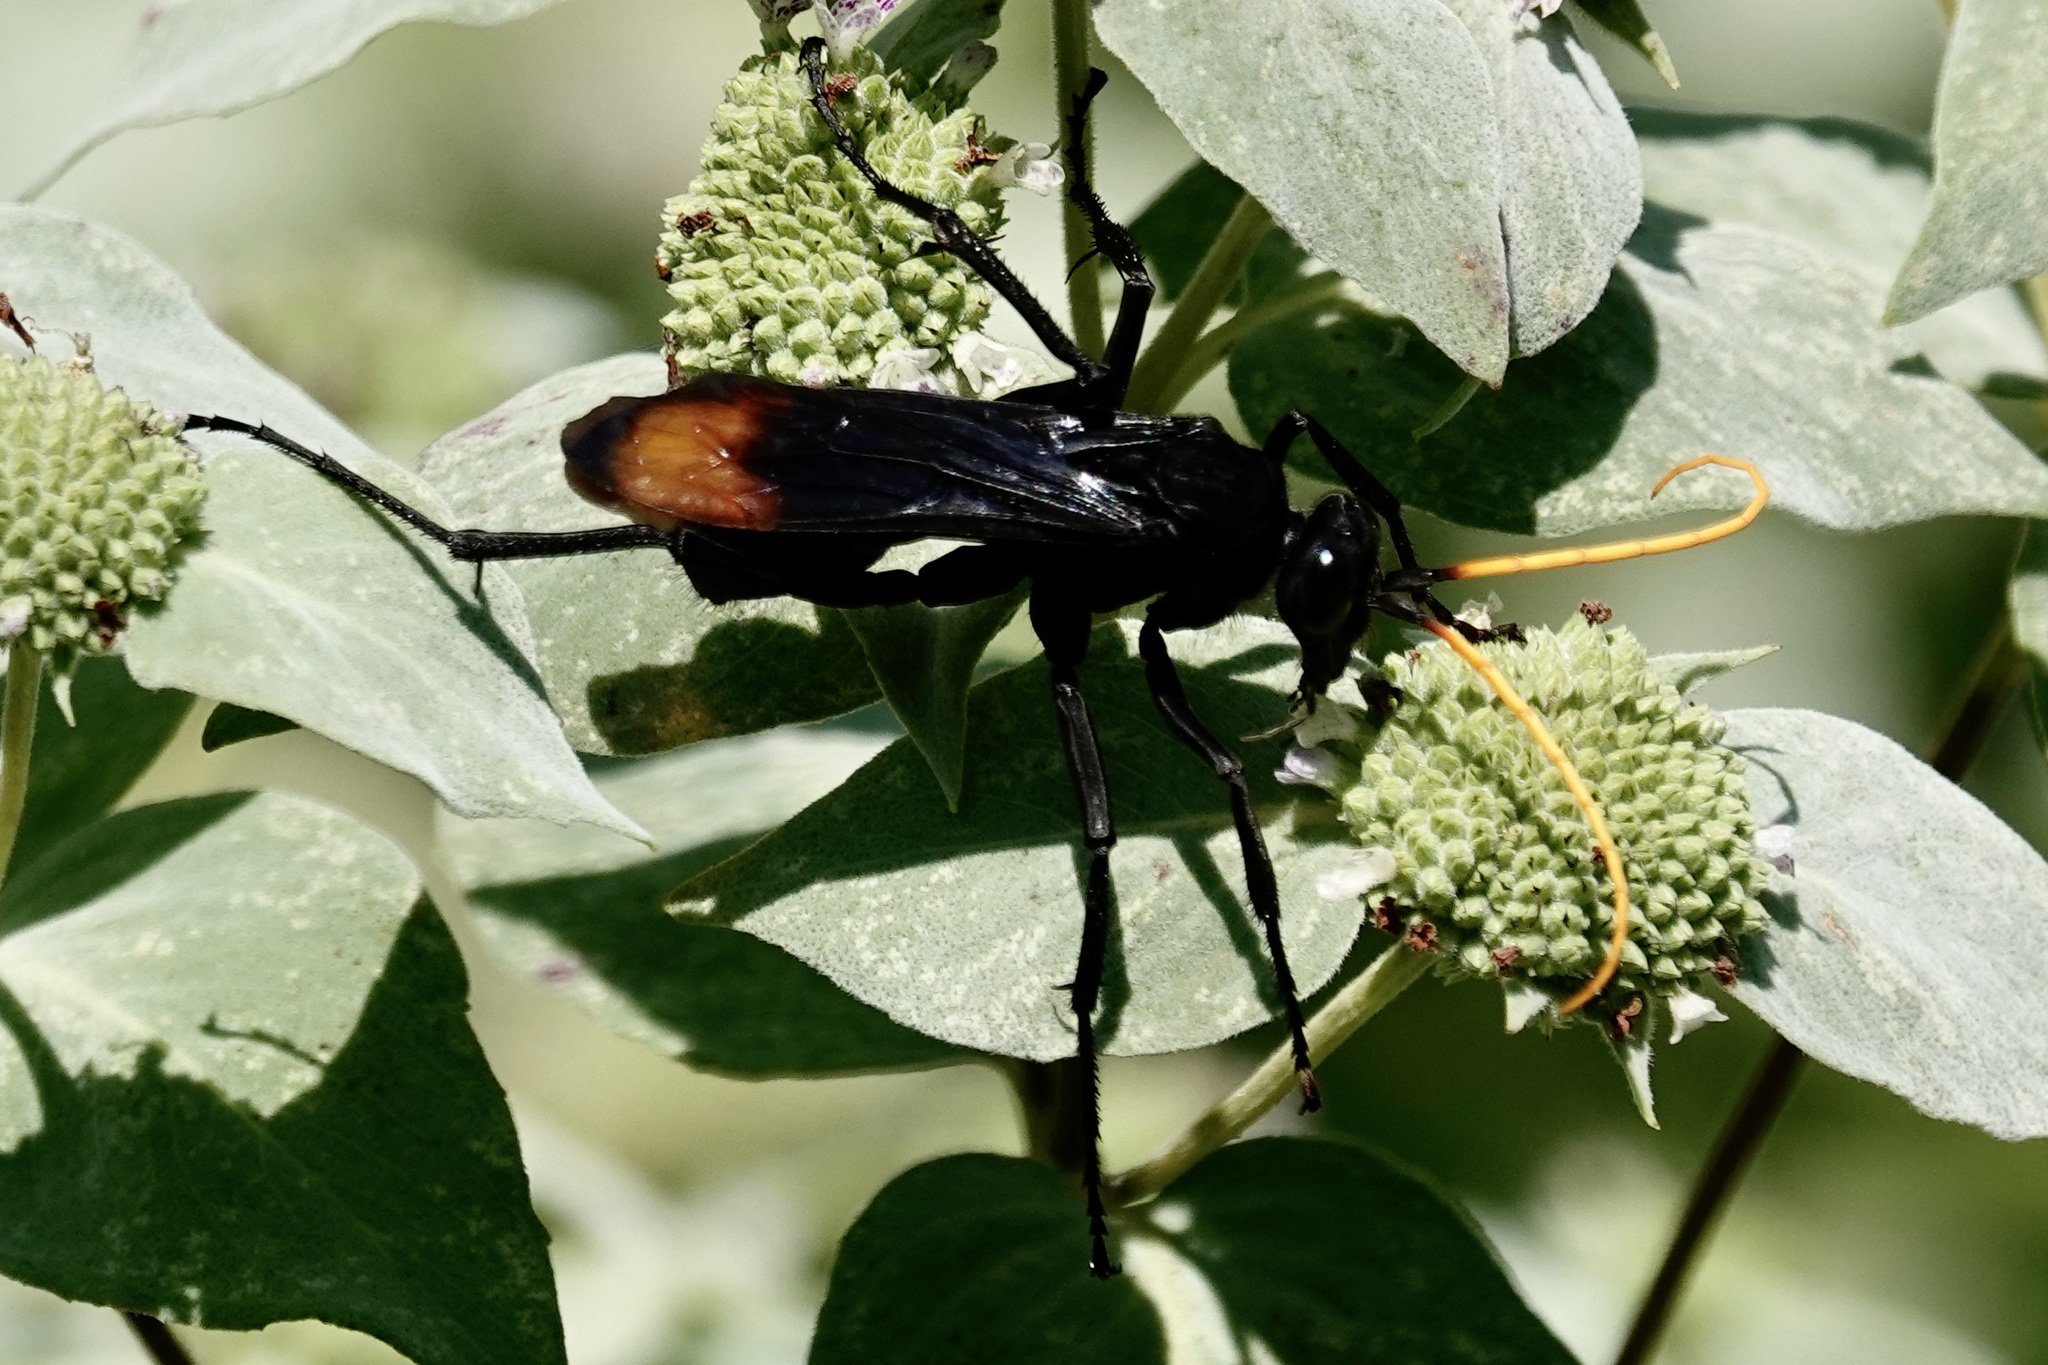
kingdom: Animalia
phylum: Arthropoda
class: Insecta
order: Hymenoptera
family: Pompilidae
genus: Entypus
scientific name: Entypus unifasciatus
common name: Eastern tawny-horned spider wasp
